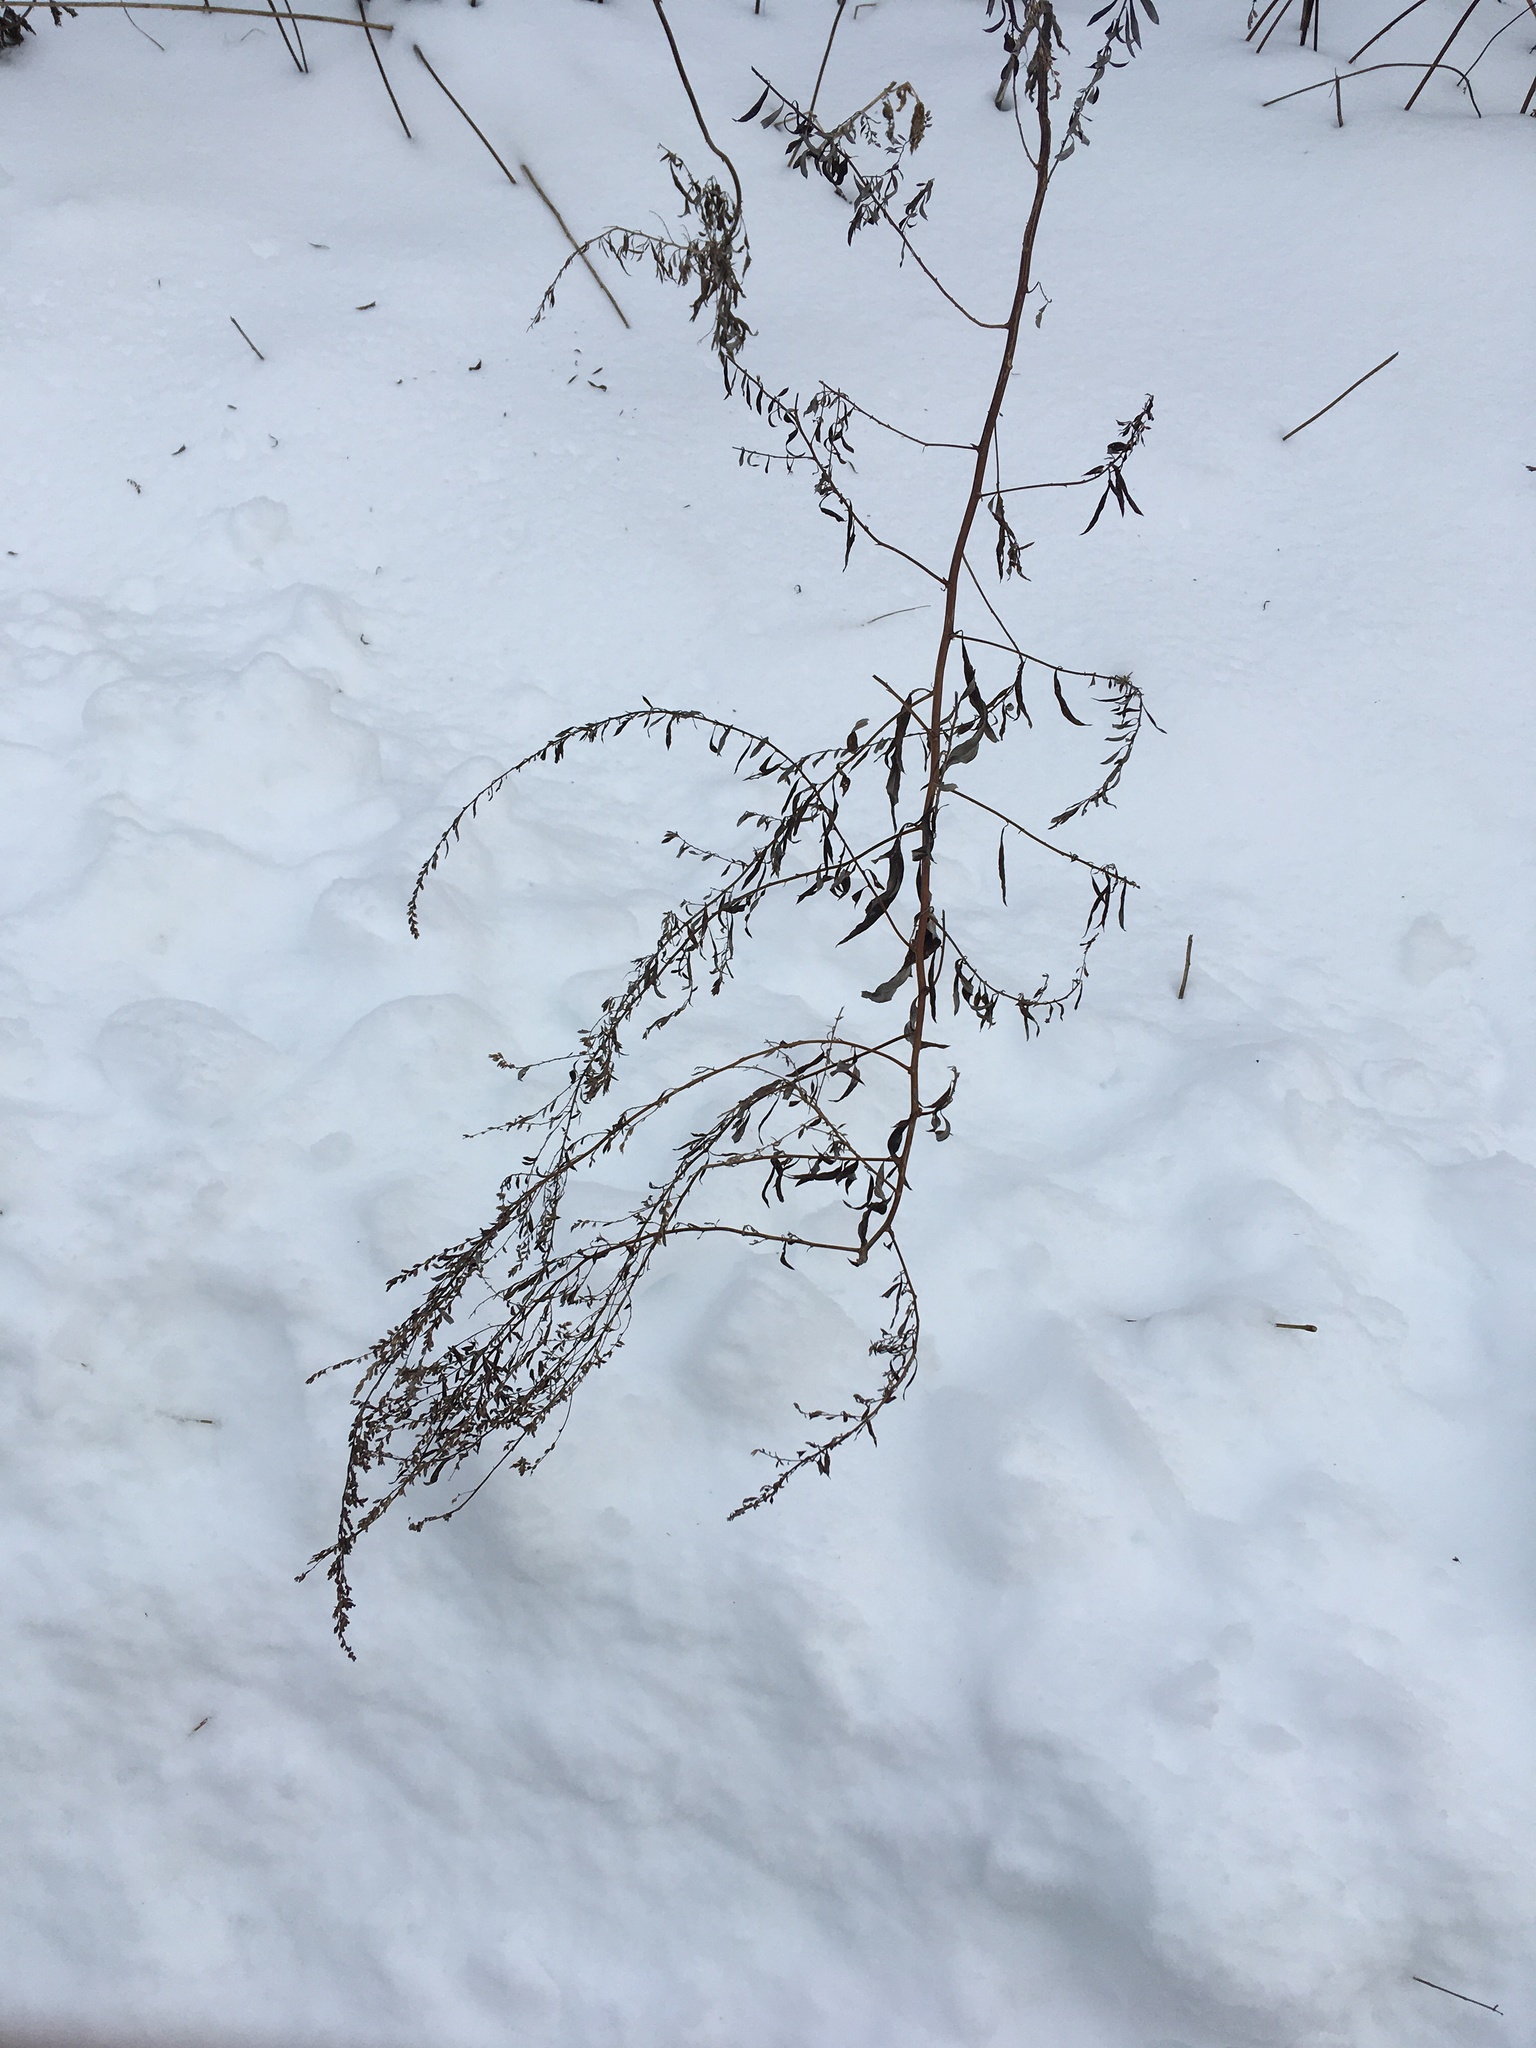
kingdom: Plantae
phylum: Tracheophyta
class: Magnoliopsida
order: Asterales
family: Asteraceae
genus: Artemisia
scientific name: Artemisia vulgaris
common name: Mugwort
